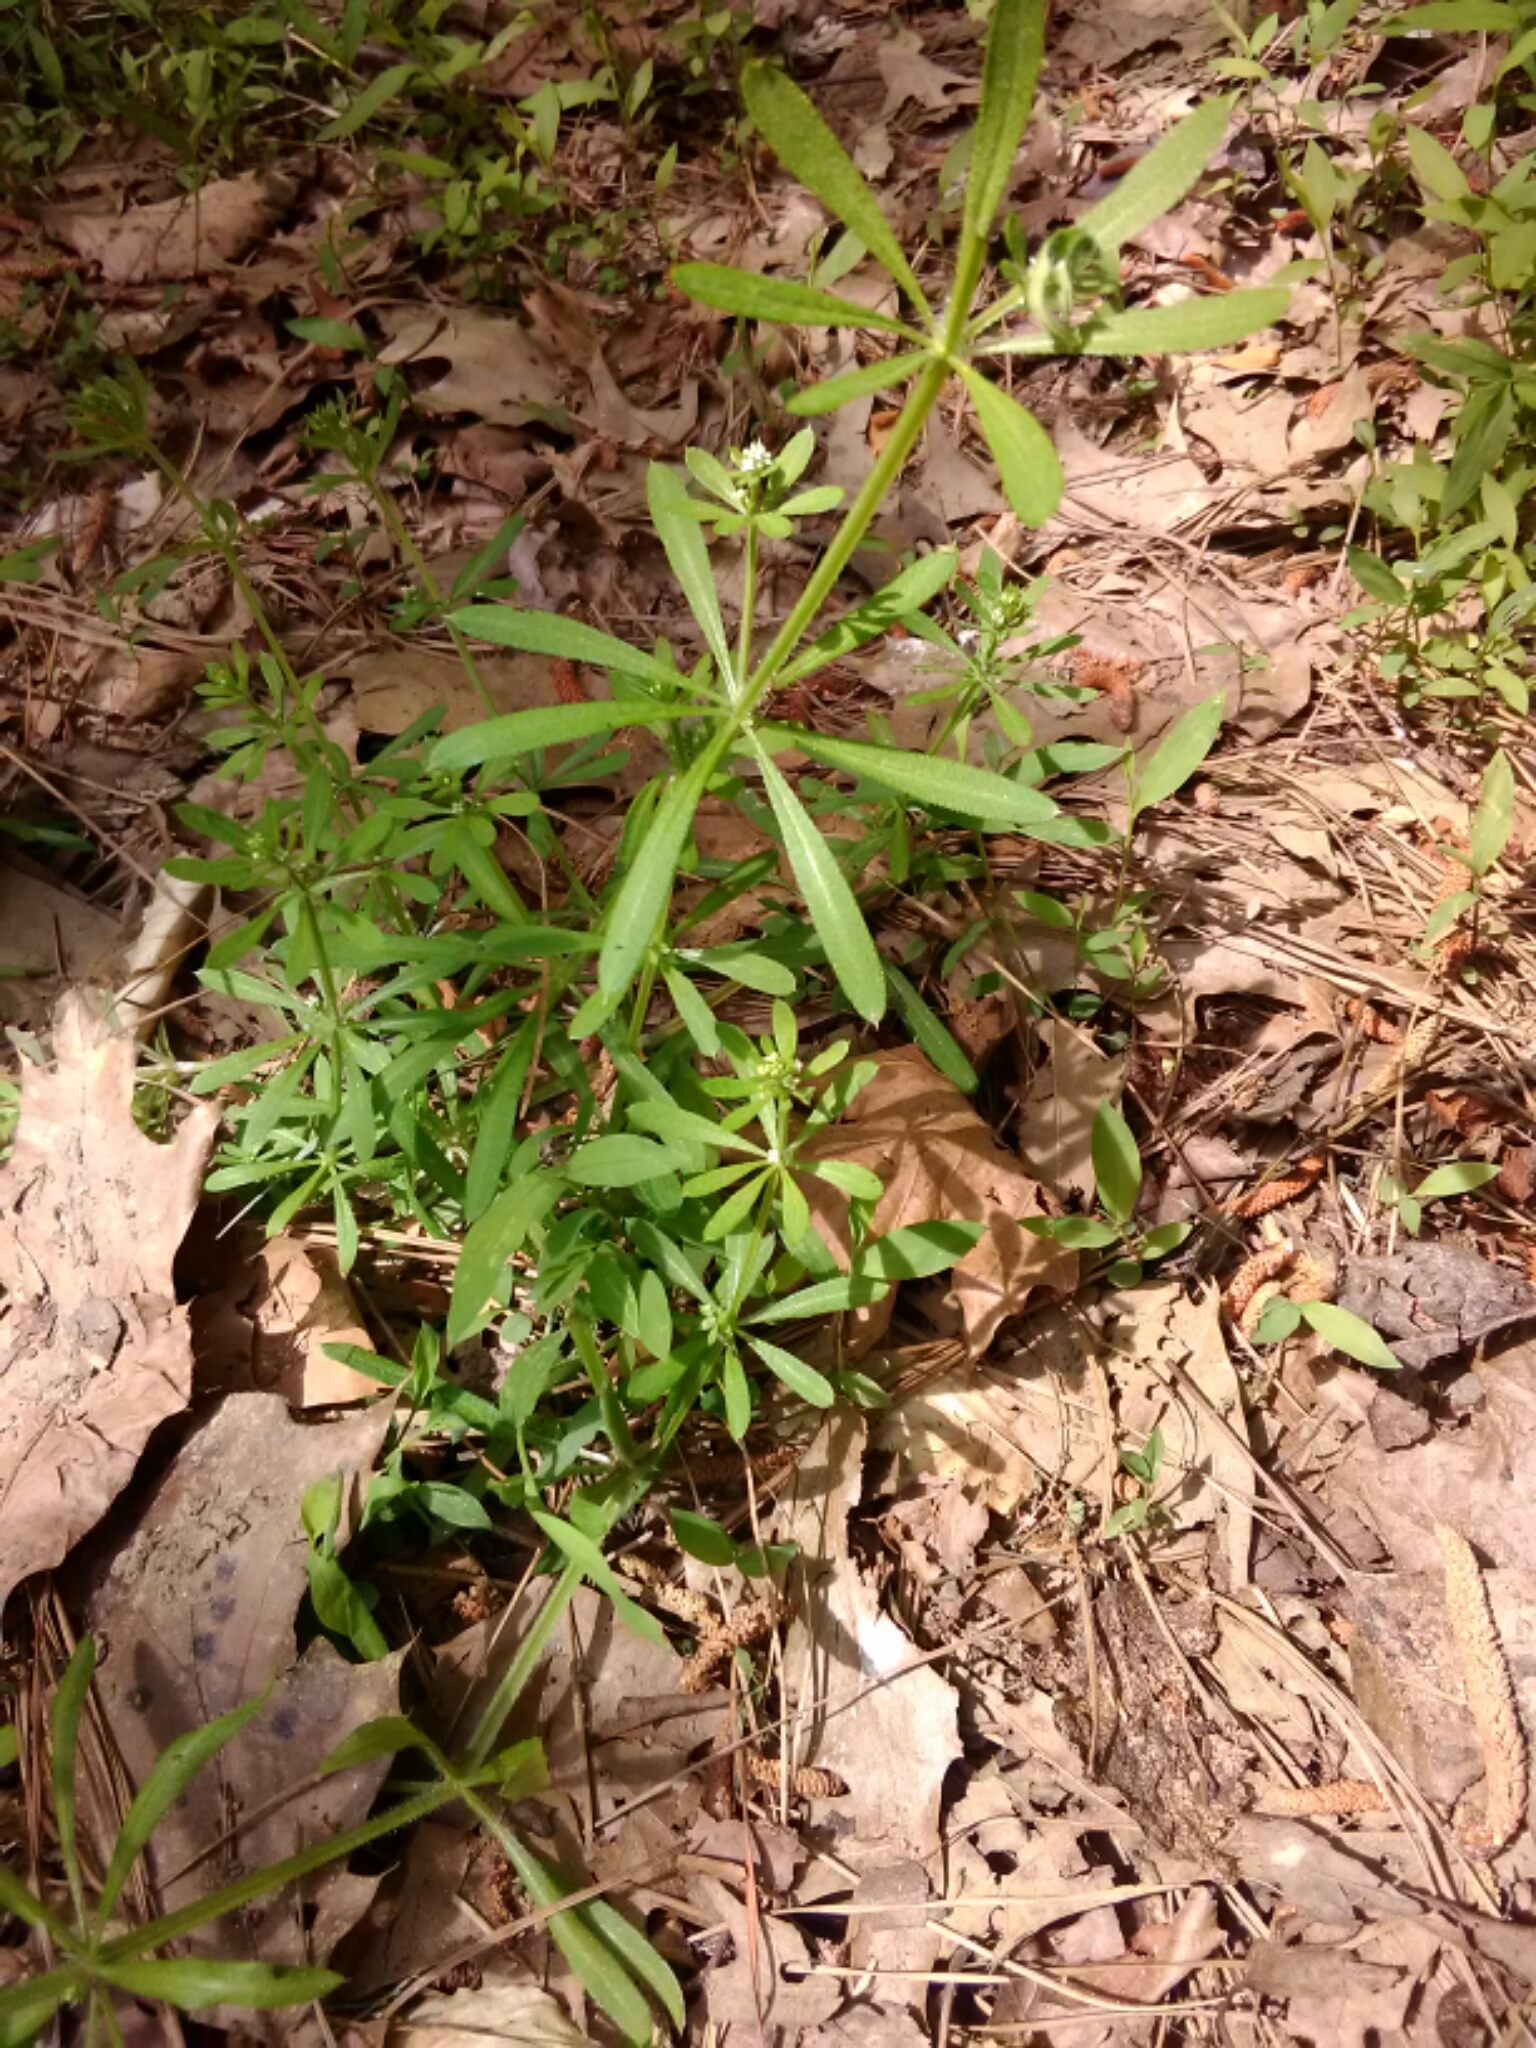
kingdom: Plantae
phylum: Tracheophyta
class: Magnoliopsida
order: Gentianales
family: Rubiaceae
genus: Galium
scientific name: Galium aparine
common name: Cleavers
